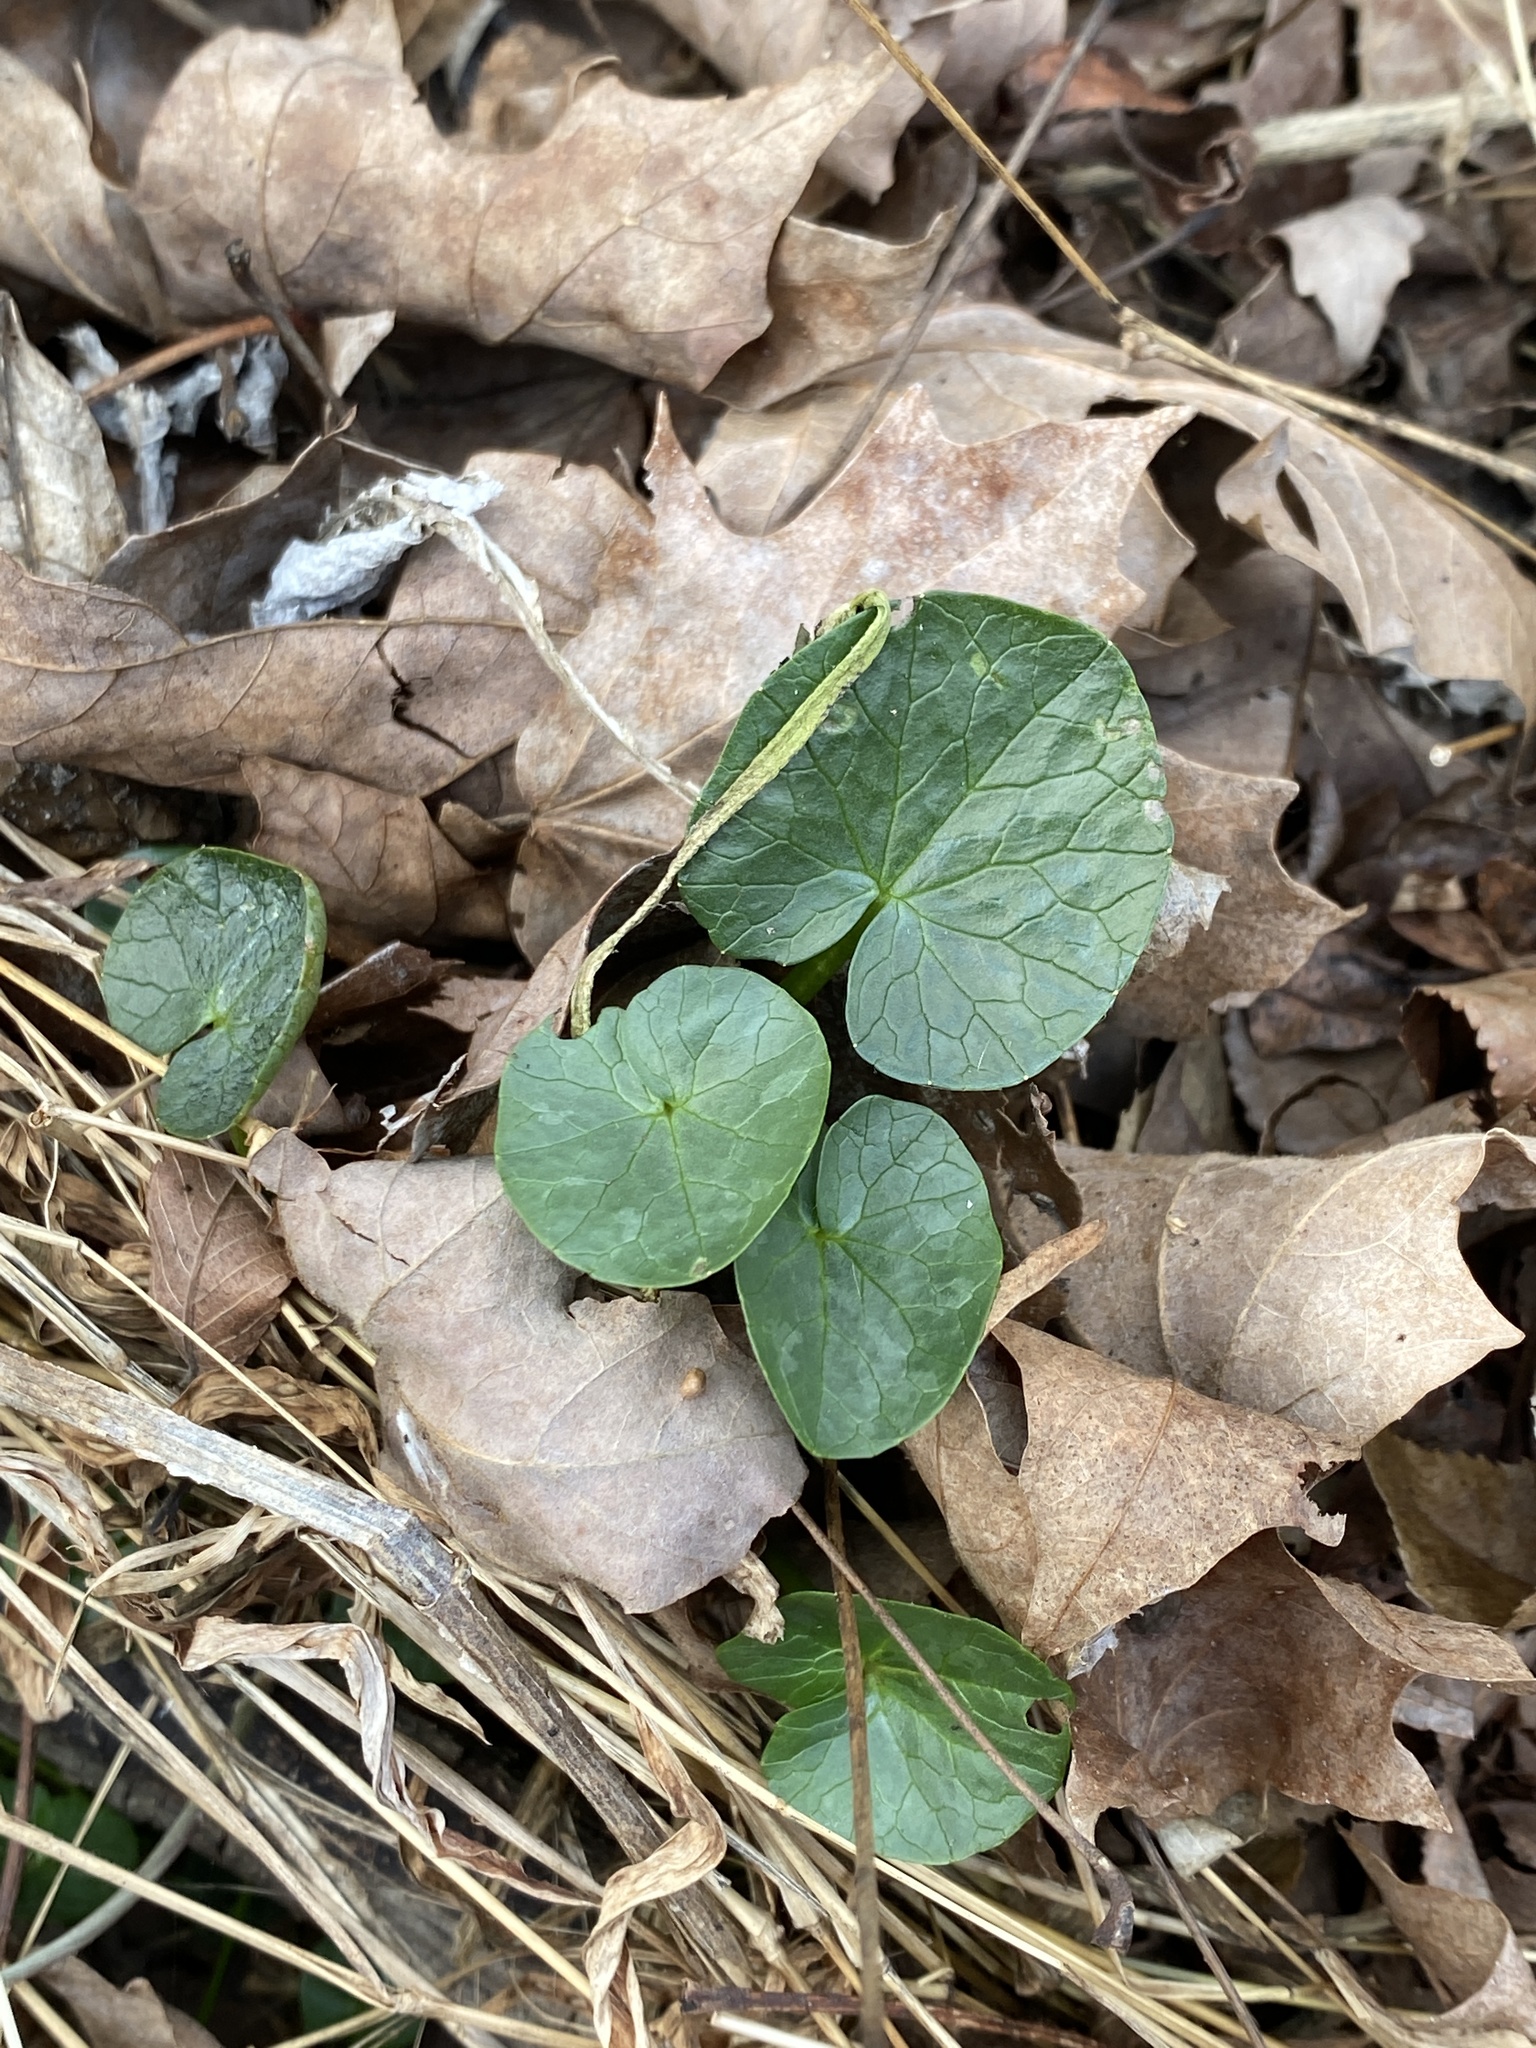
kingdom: Plantae
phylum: Tracheophyta
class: Magnoliopsida
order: Ranunculales
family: Ranunculaceae
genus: Ficaria
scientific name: Ficaria verna
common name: Lesser celandine
